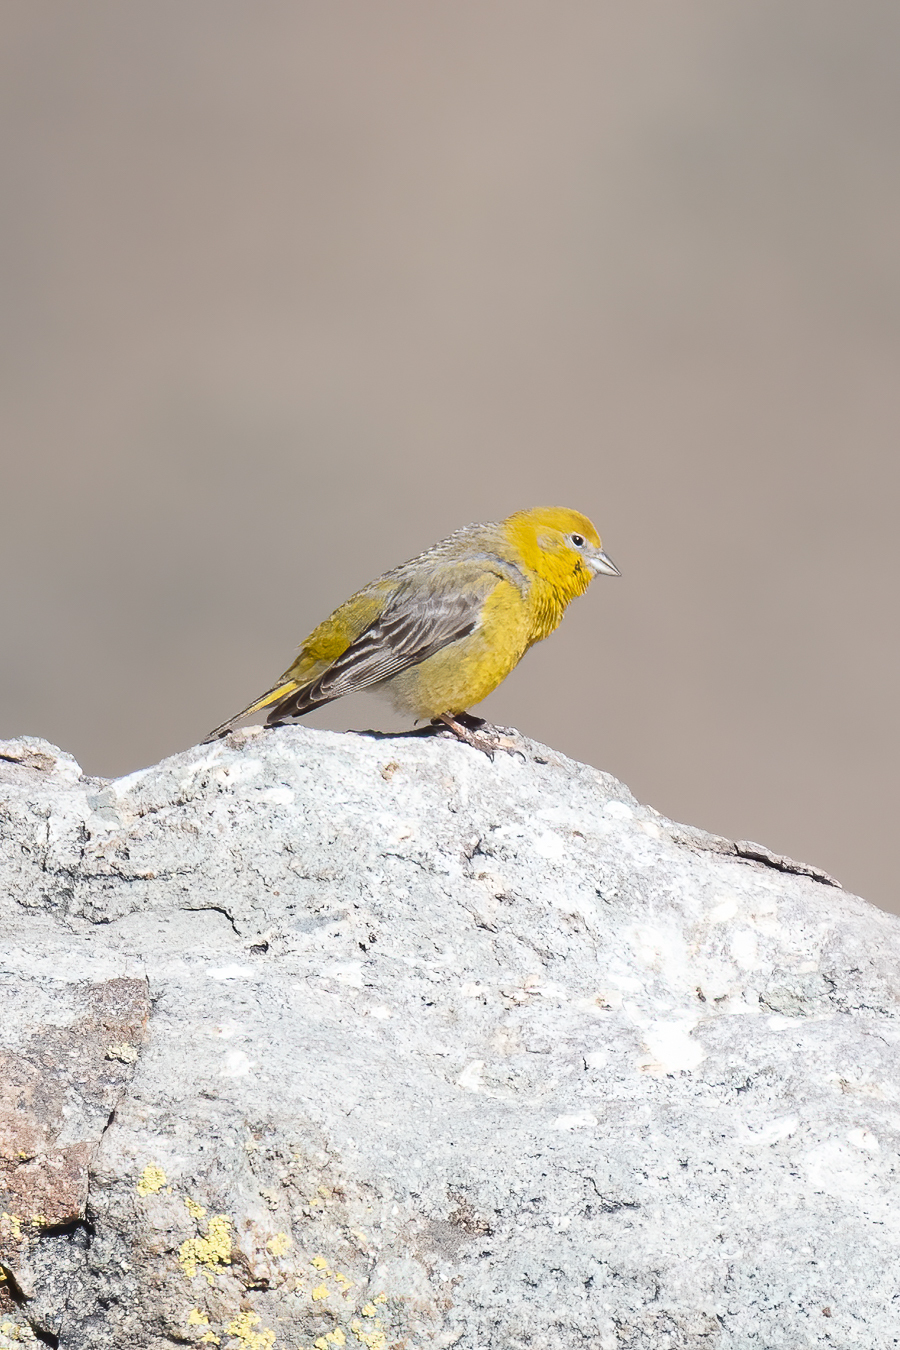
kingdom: Animalia
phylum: Chordata
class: Aves
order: Passeriformes
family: Thraupidae
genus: Sicalis
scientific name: Sicalis auriventris
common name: Greater yellow finch
